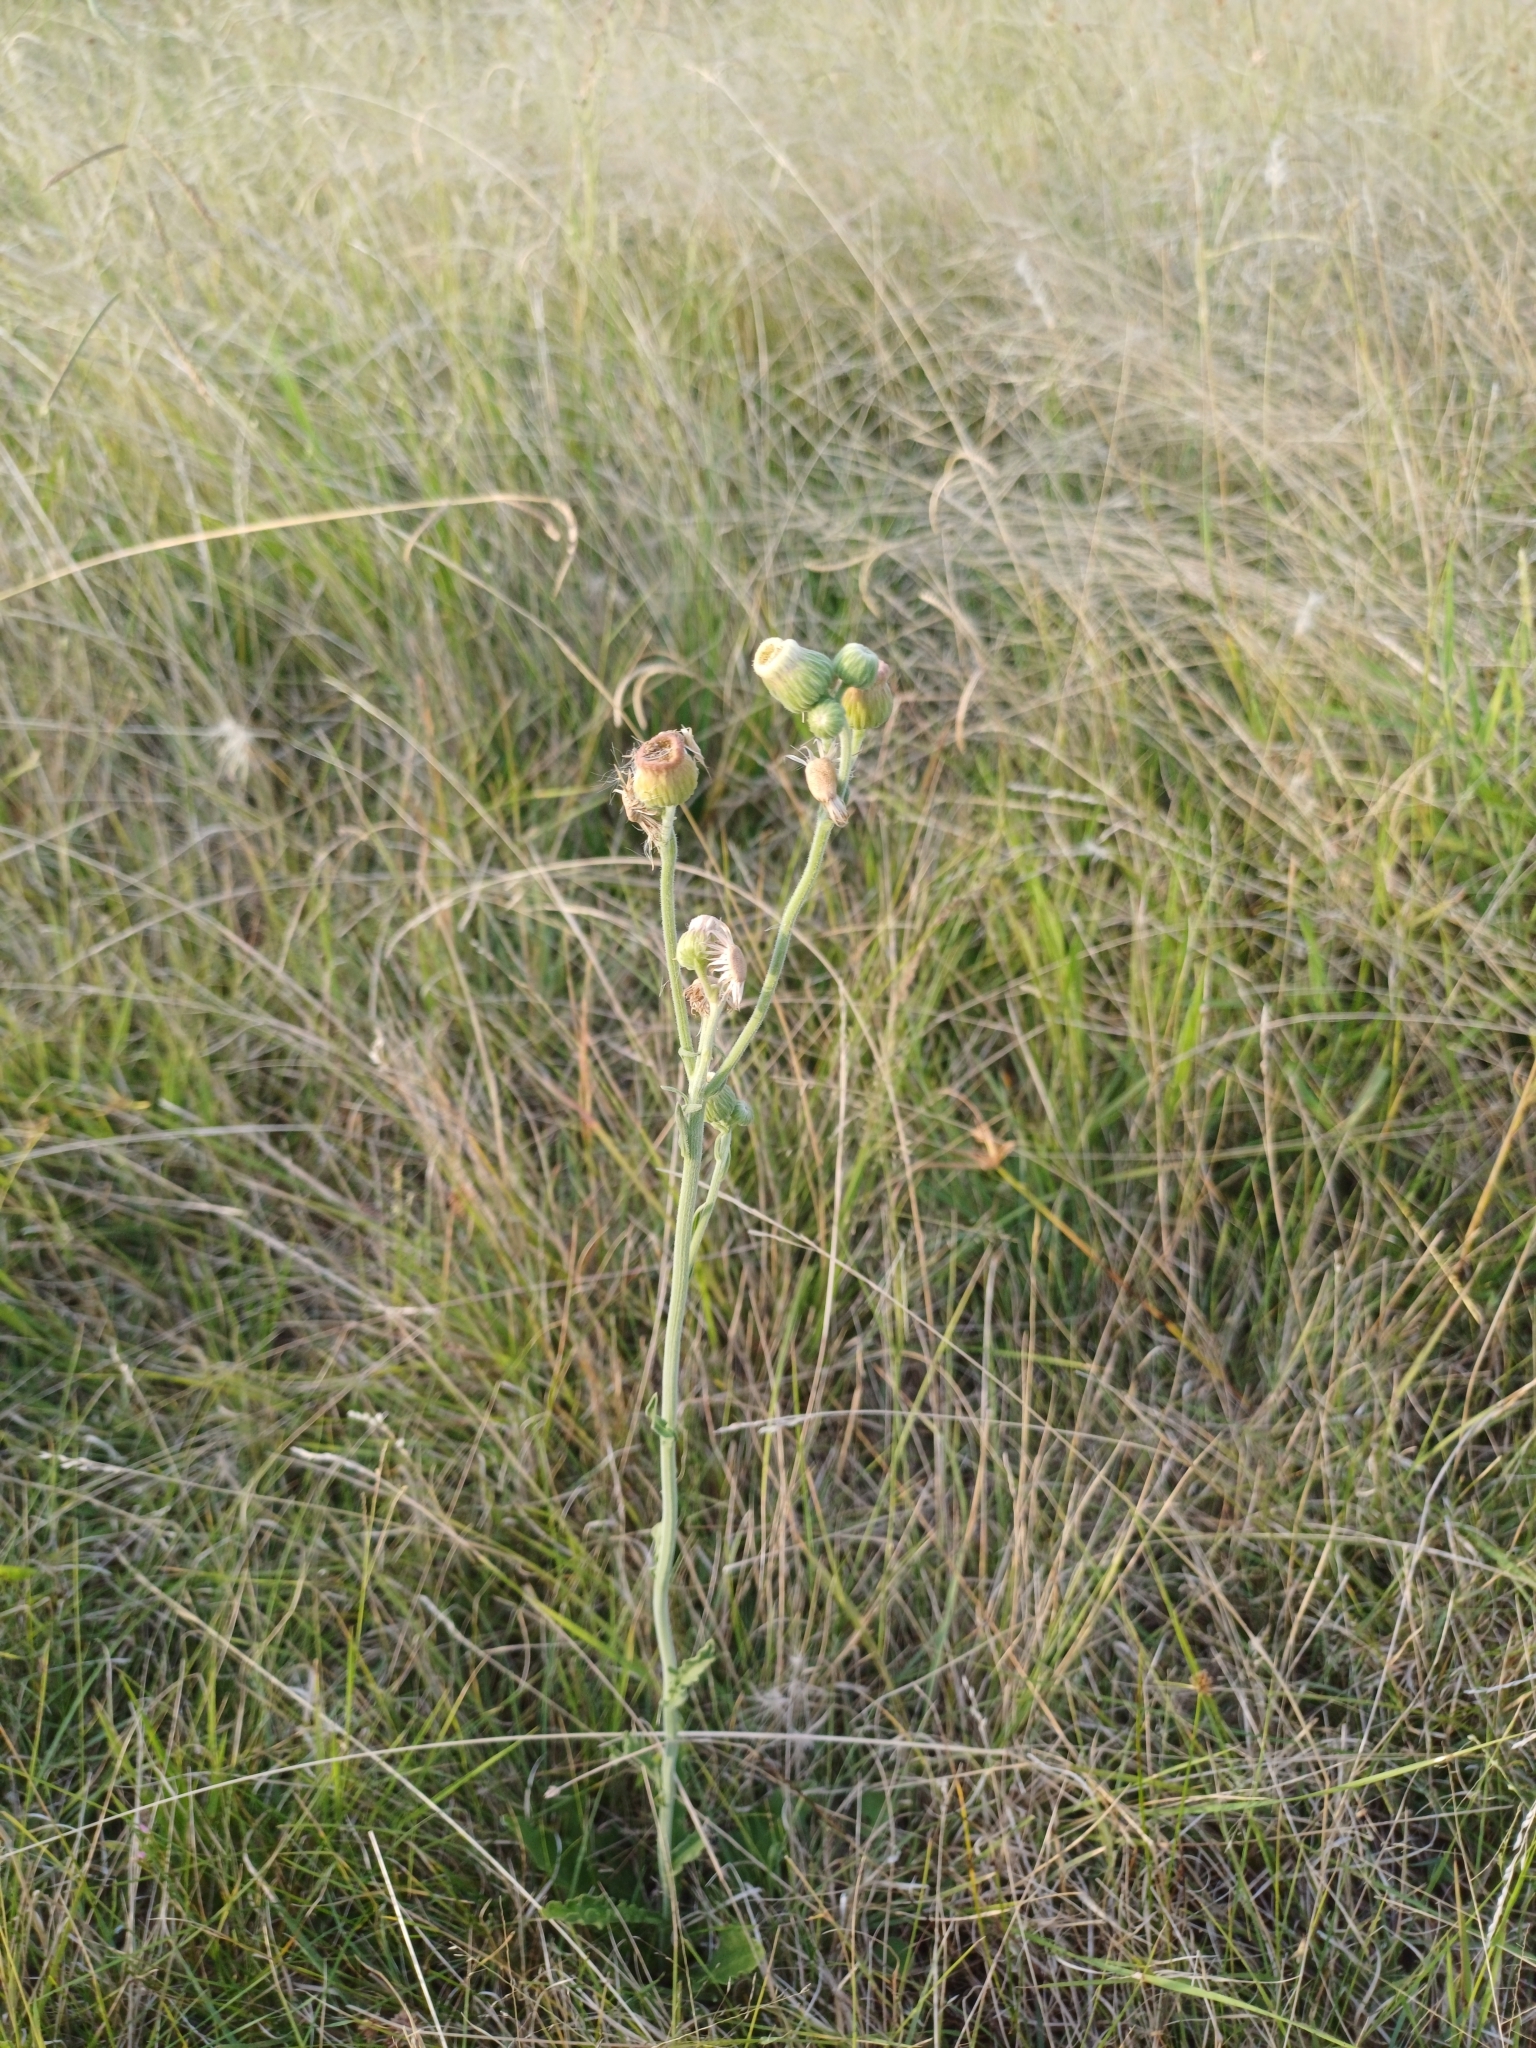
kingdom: Plantae
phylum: Tracheophyta
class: Magnoliopsida
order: Asterales
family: Asteraceae
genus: Erigeron
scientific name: Erigeron primulifolius
